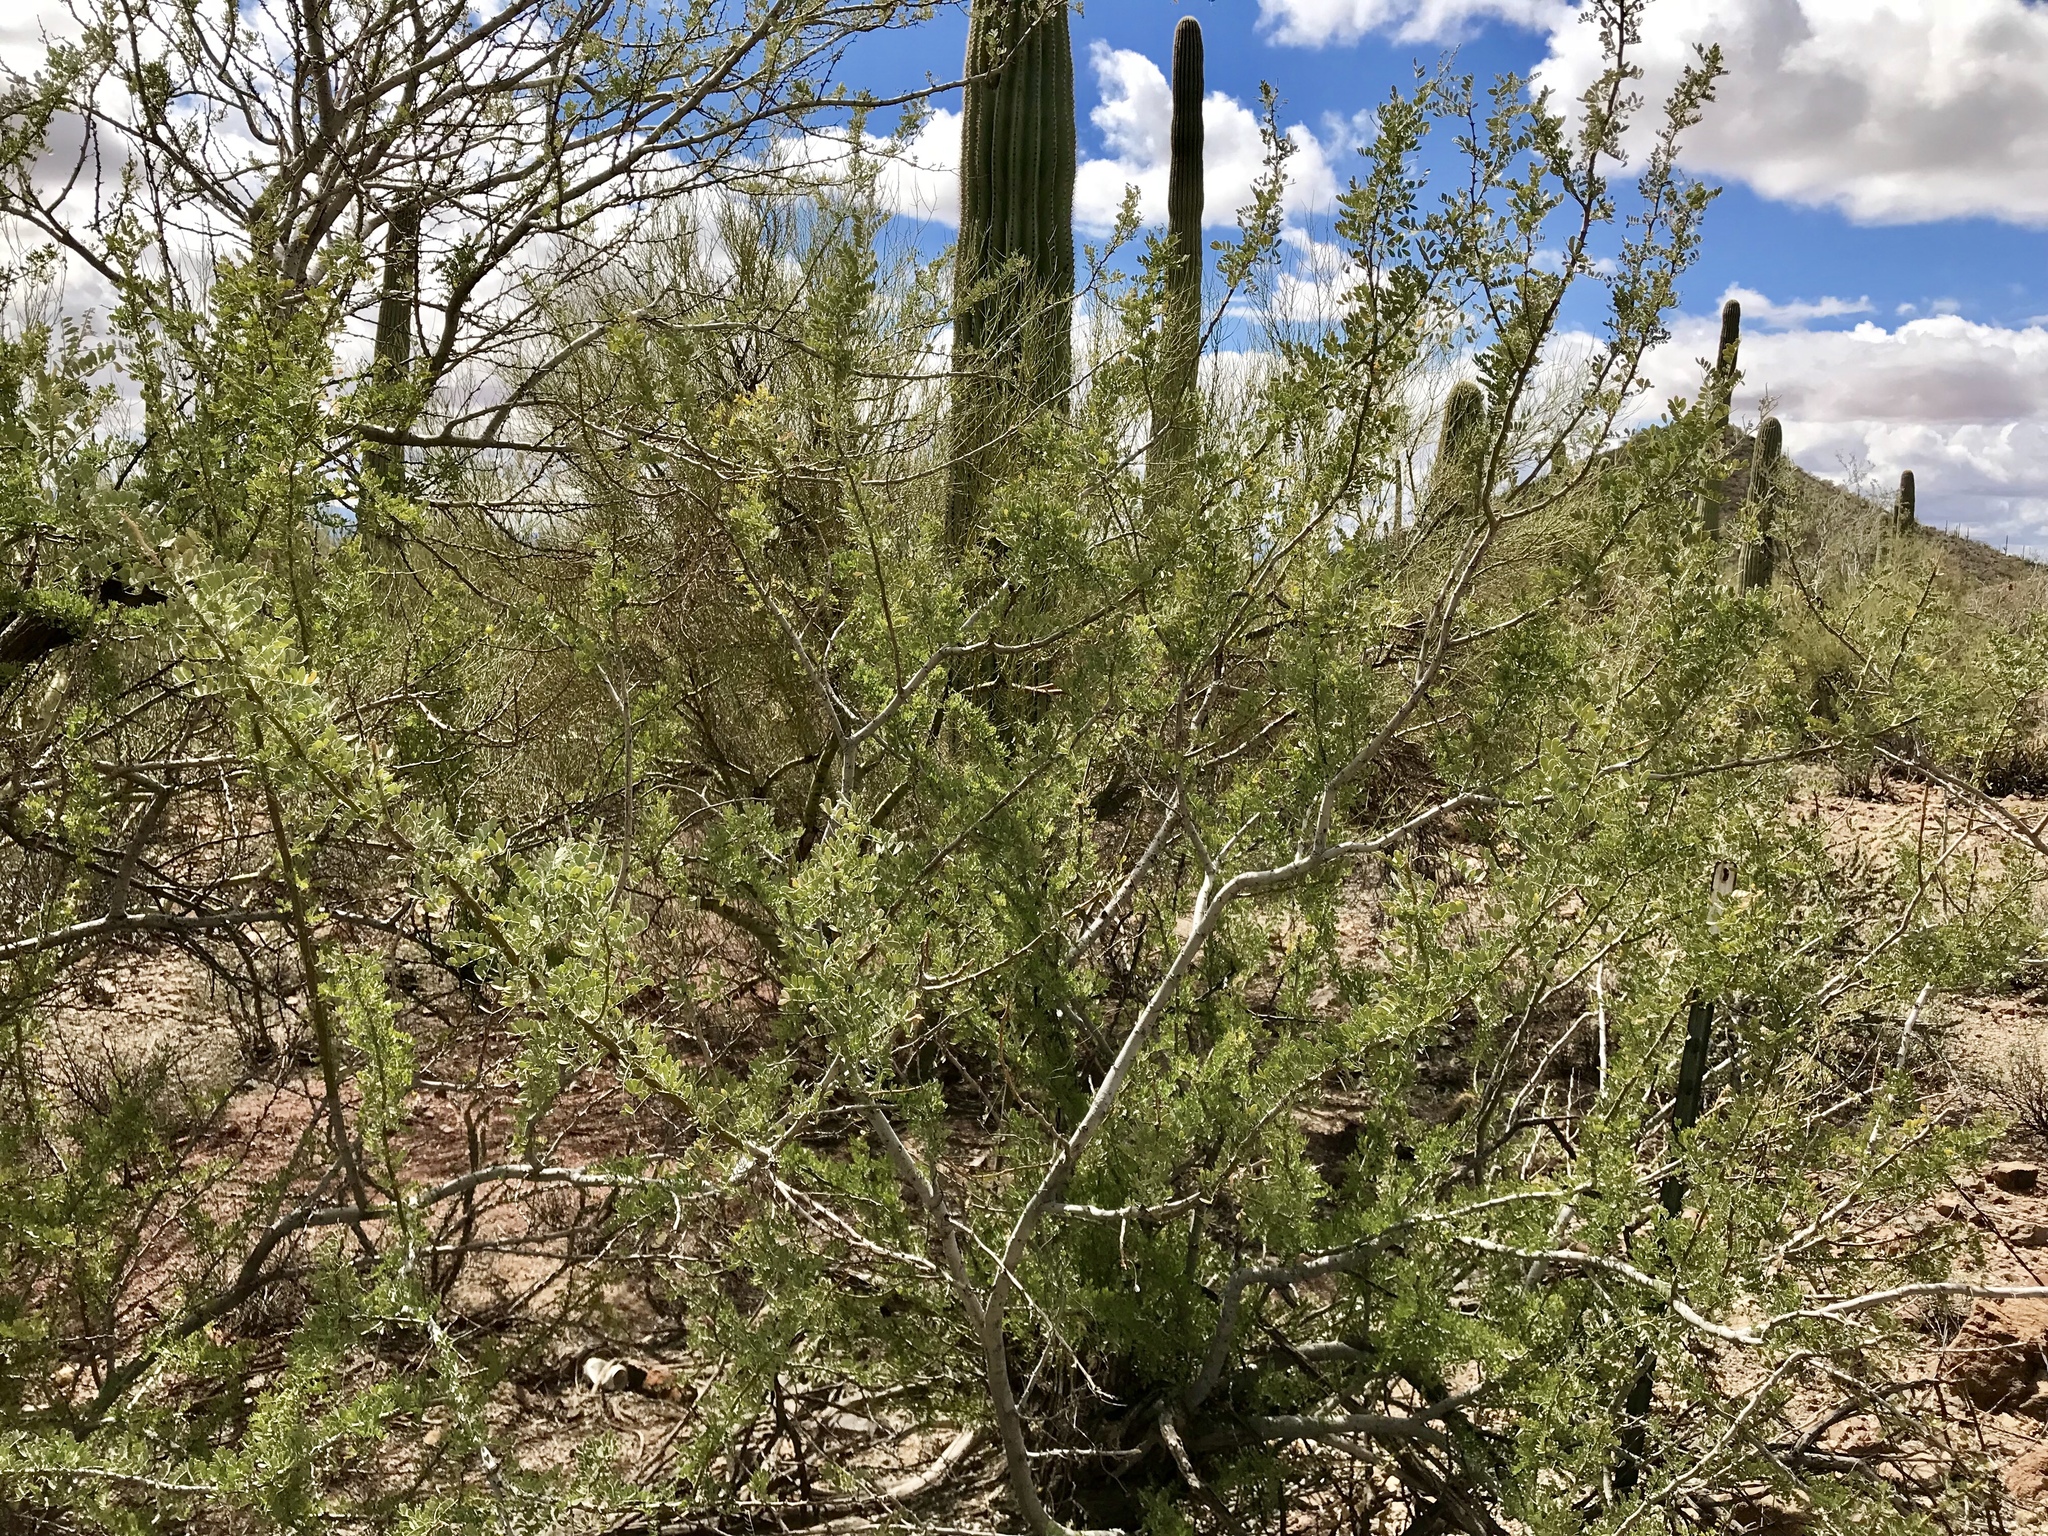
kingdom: Plantae
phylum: Tracheophyta
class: Magnoliopsida
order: Fabales
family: Fabaceae
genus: Senegalia
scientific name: Senegalia greggii
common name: Texas-mimosa
